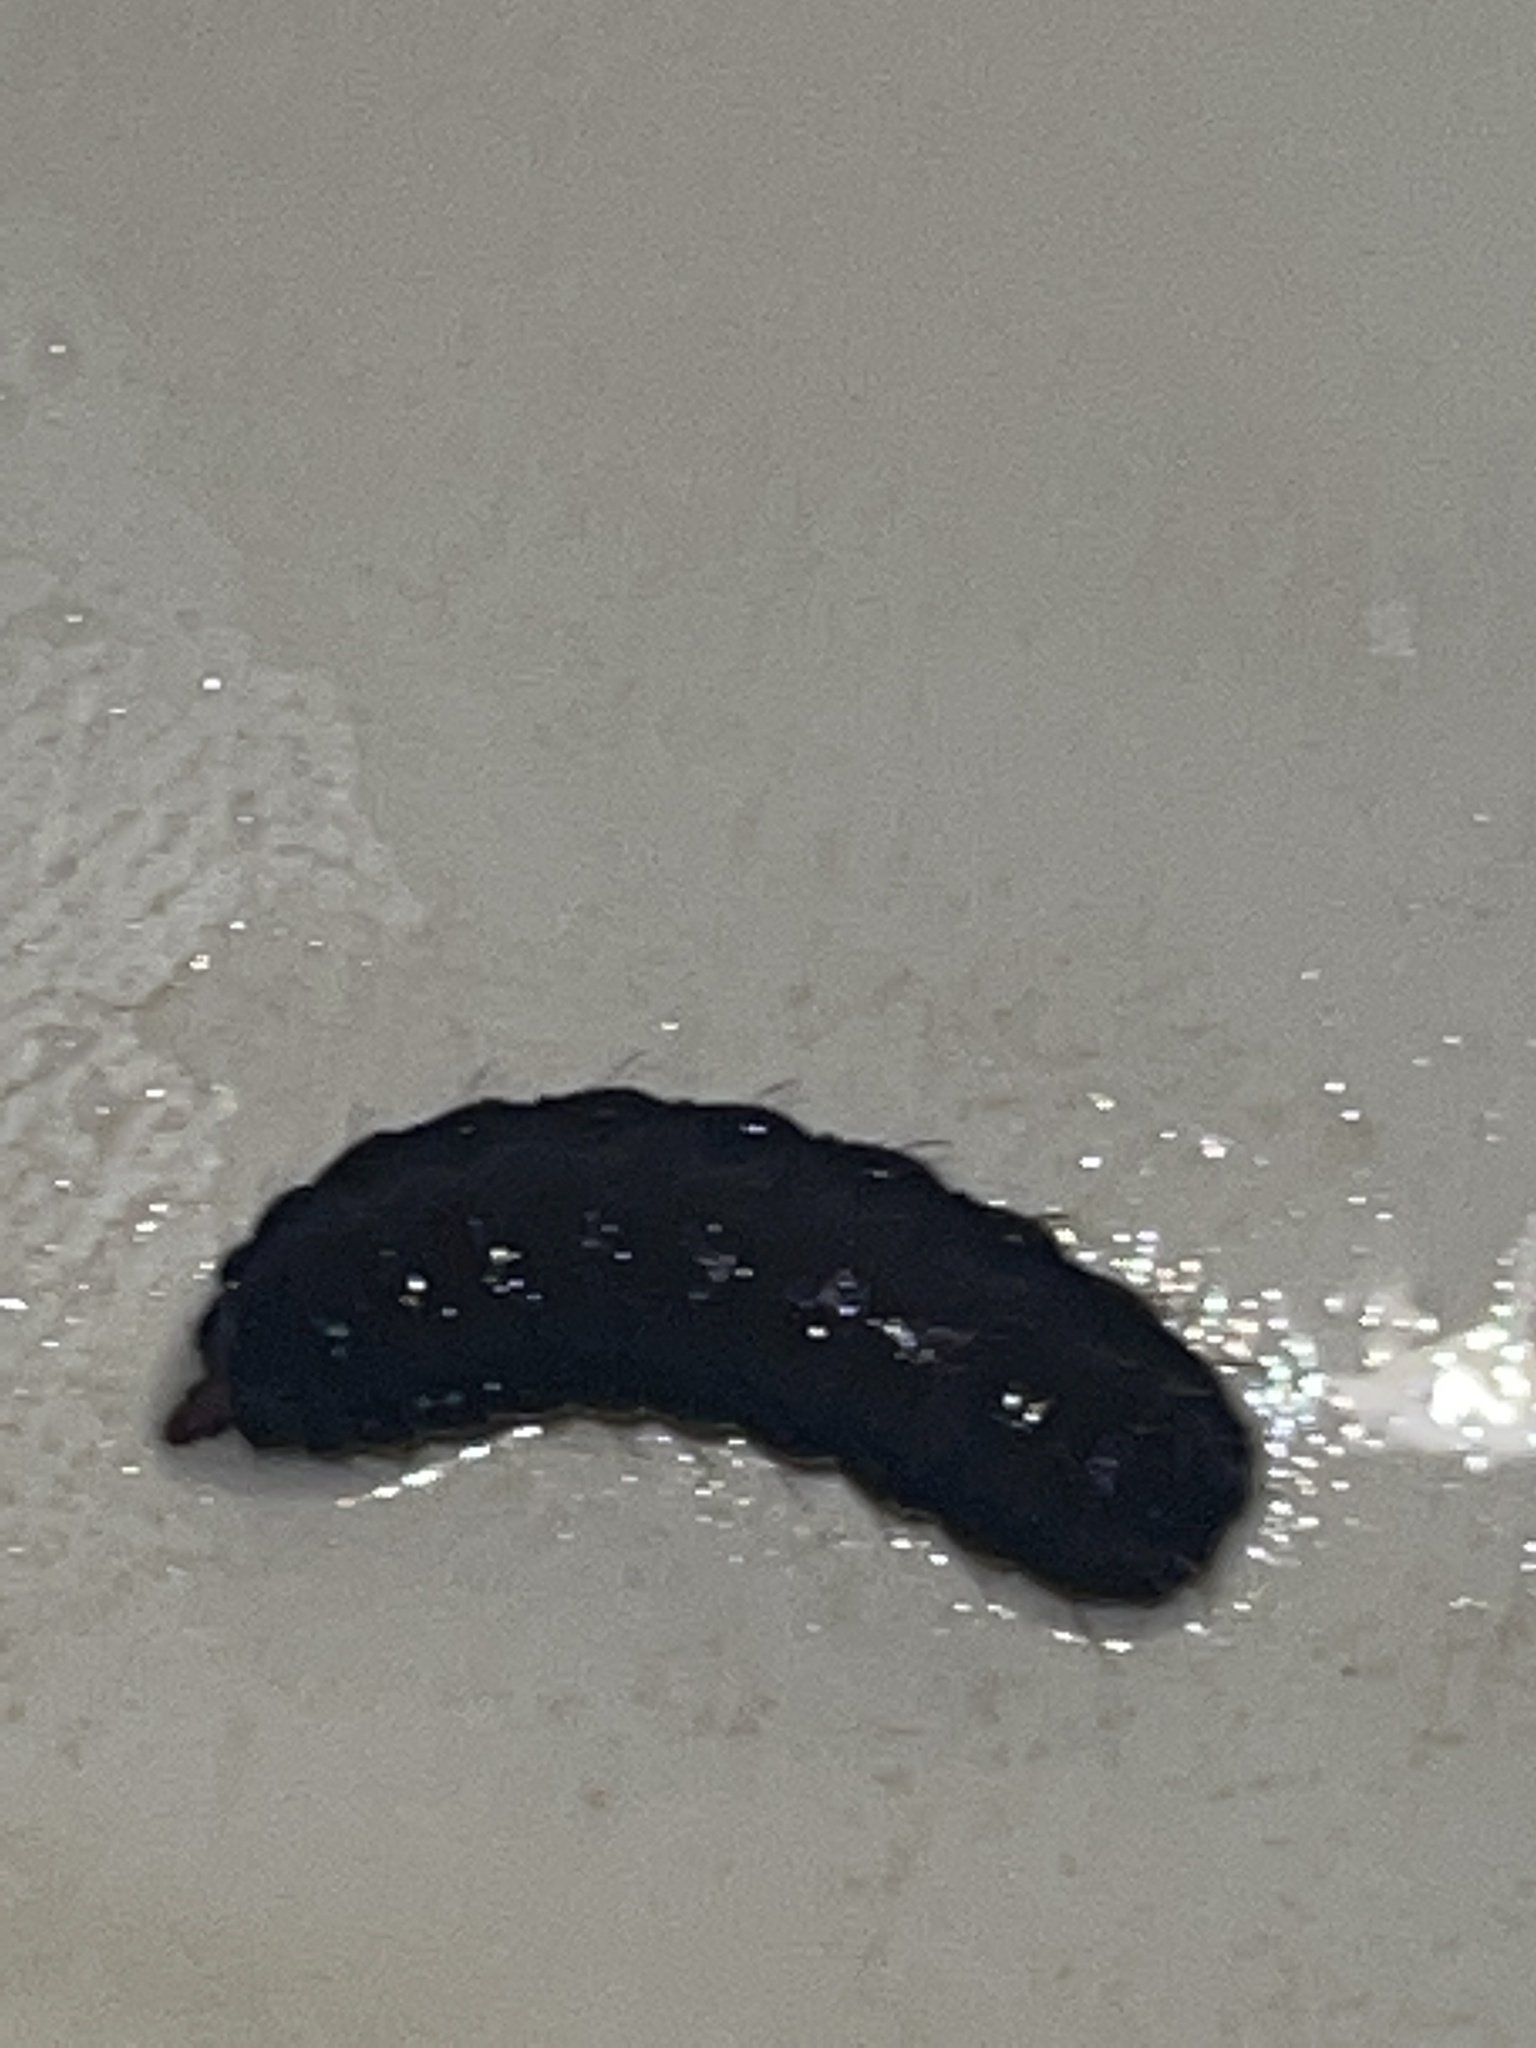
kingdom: Animalia
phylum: Arthropoda
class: Insecta
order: Diptera
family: Stratiomyidae
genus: Hermetia
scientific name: Hermetia illucens
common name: Black soldier fly
